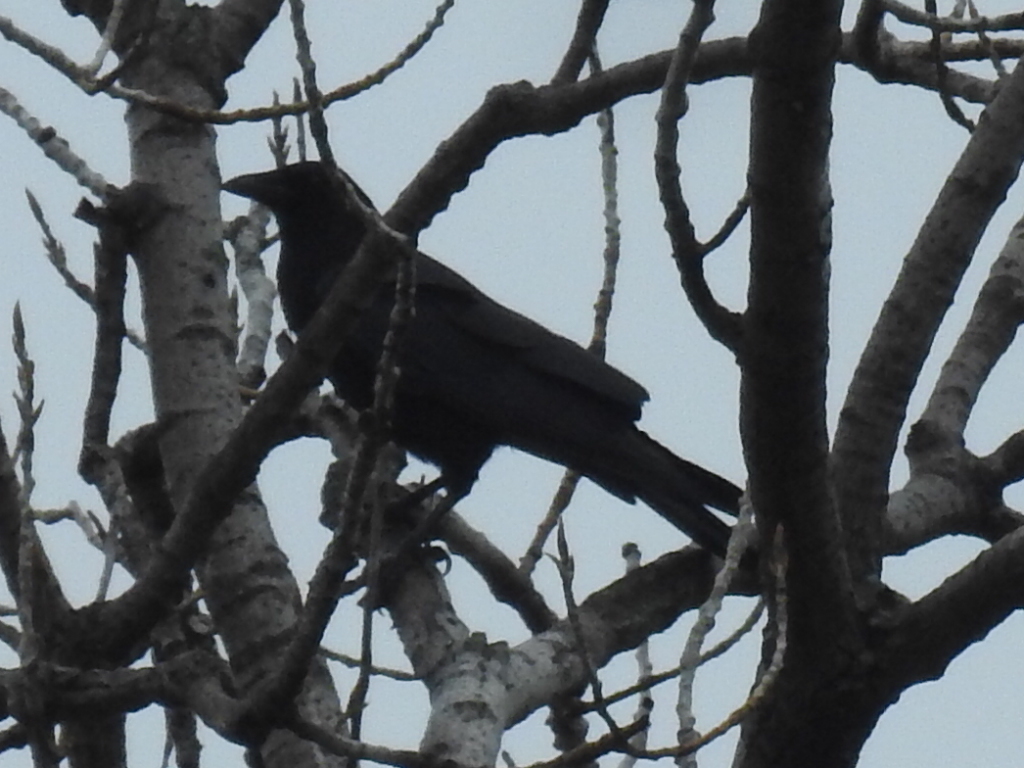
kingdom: Animalia
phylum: Chordata
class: Aves
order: Passeriformes
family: Corvidae
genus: Corvus
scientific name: Corvus brachyrhynchos
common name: American crow
